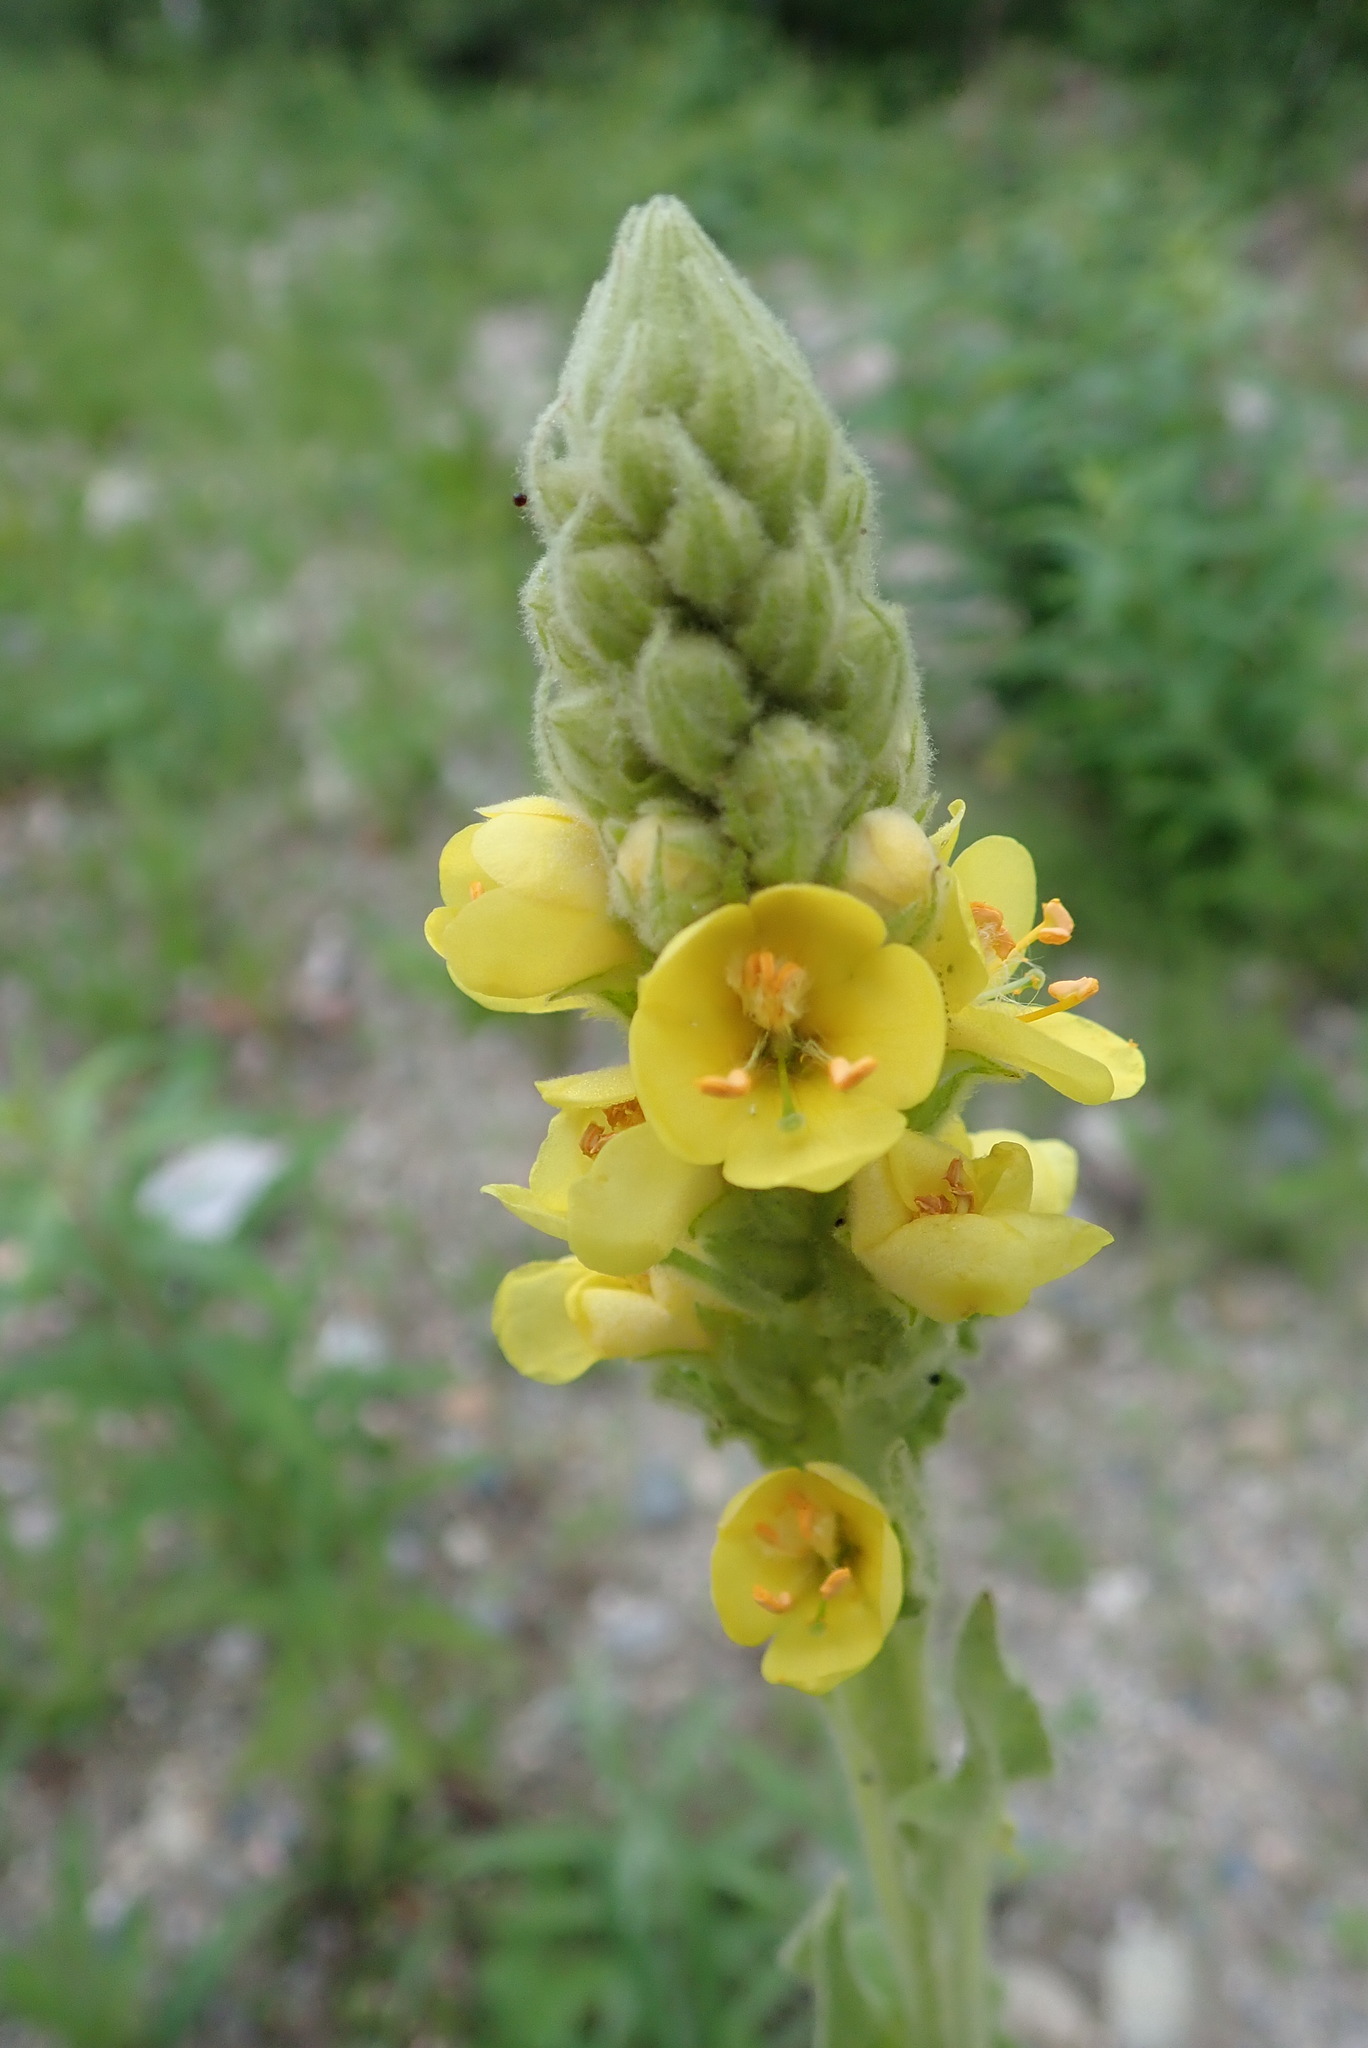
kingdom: Plantae
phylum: Tracheophyta
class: Magnoliopsida
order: Lamiales
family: Scrophulariaceae
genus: Verbascum
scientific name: Verbascum thapsus
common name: Common mullein
